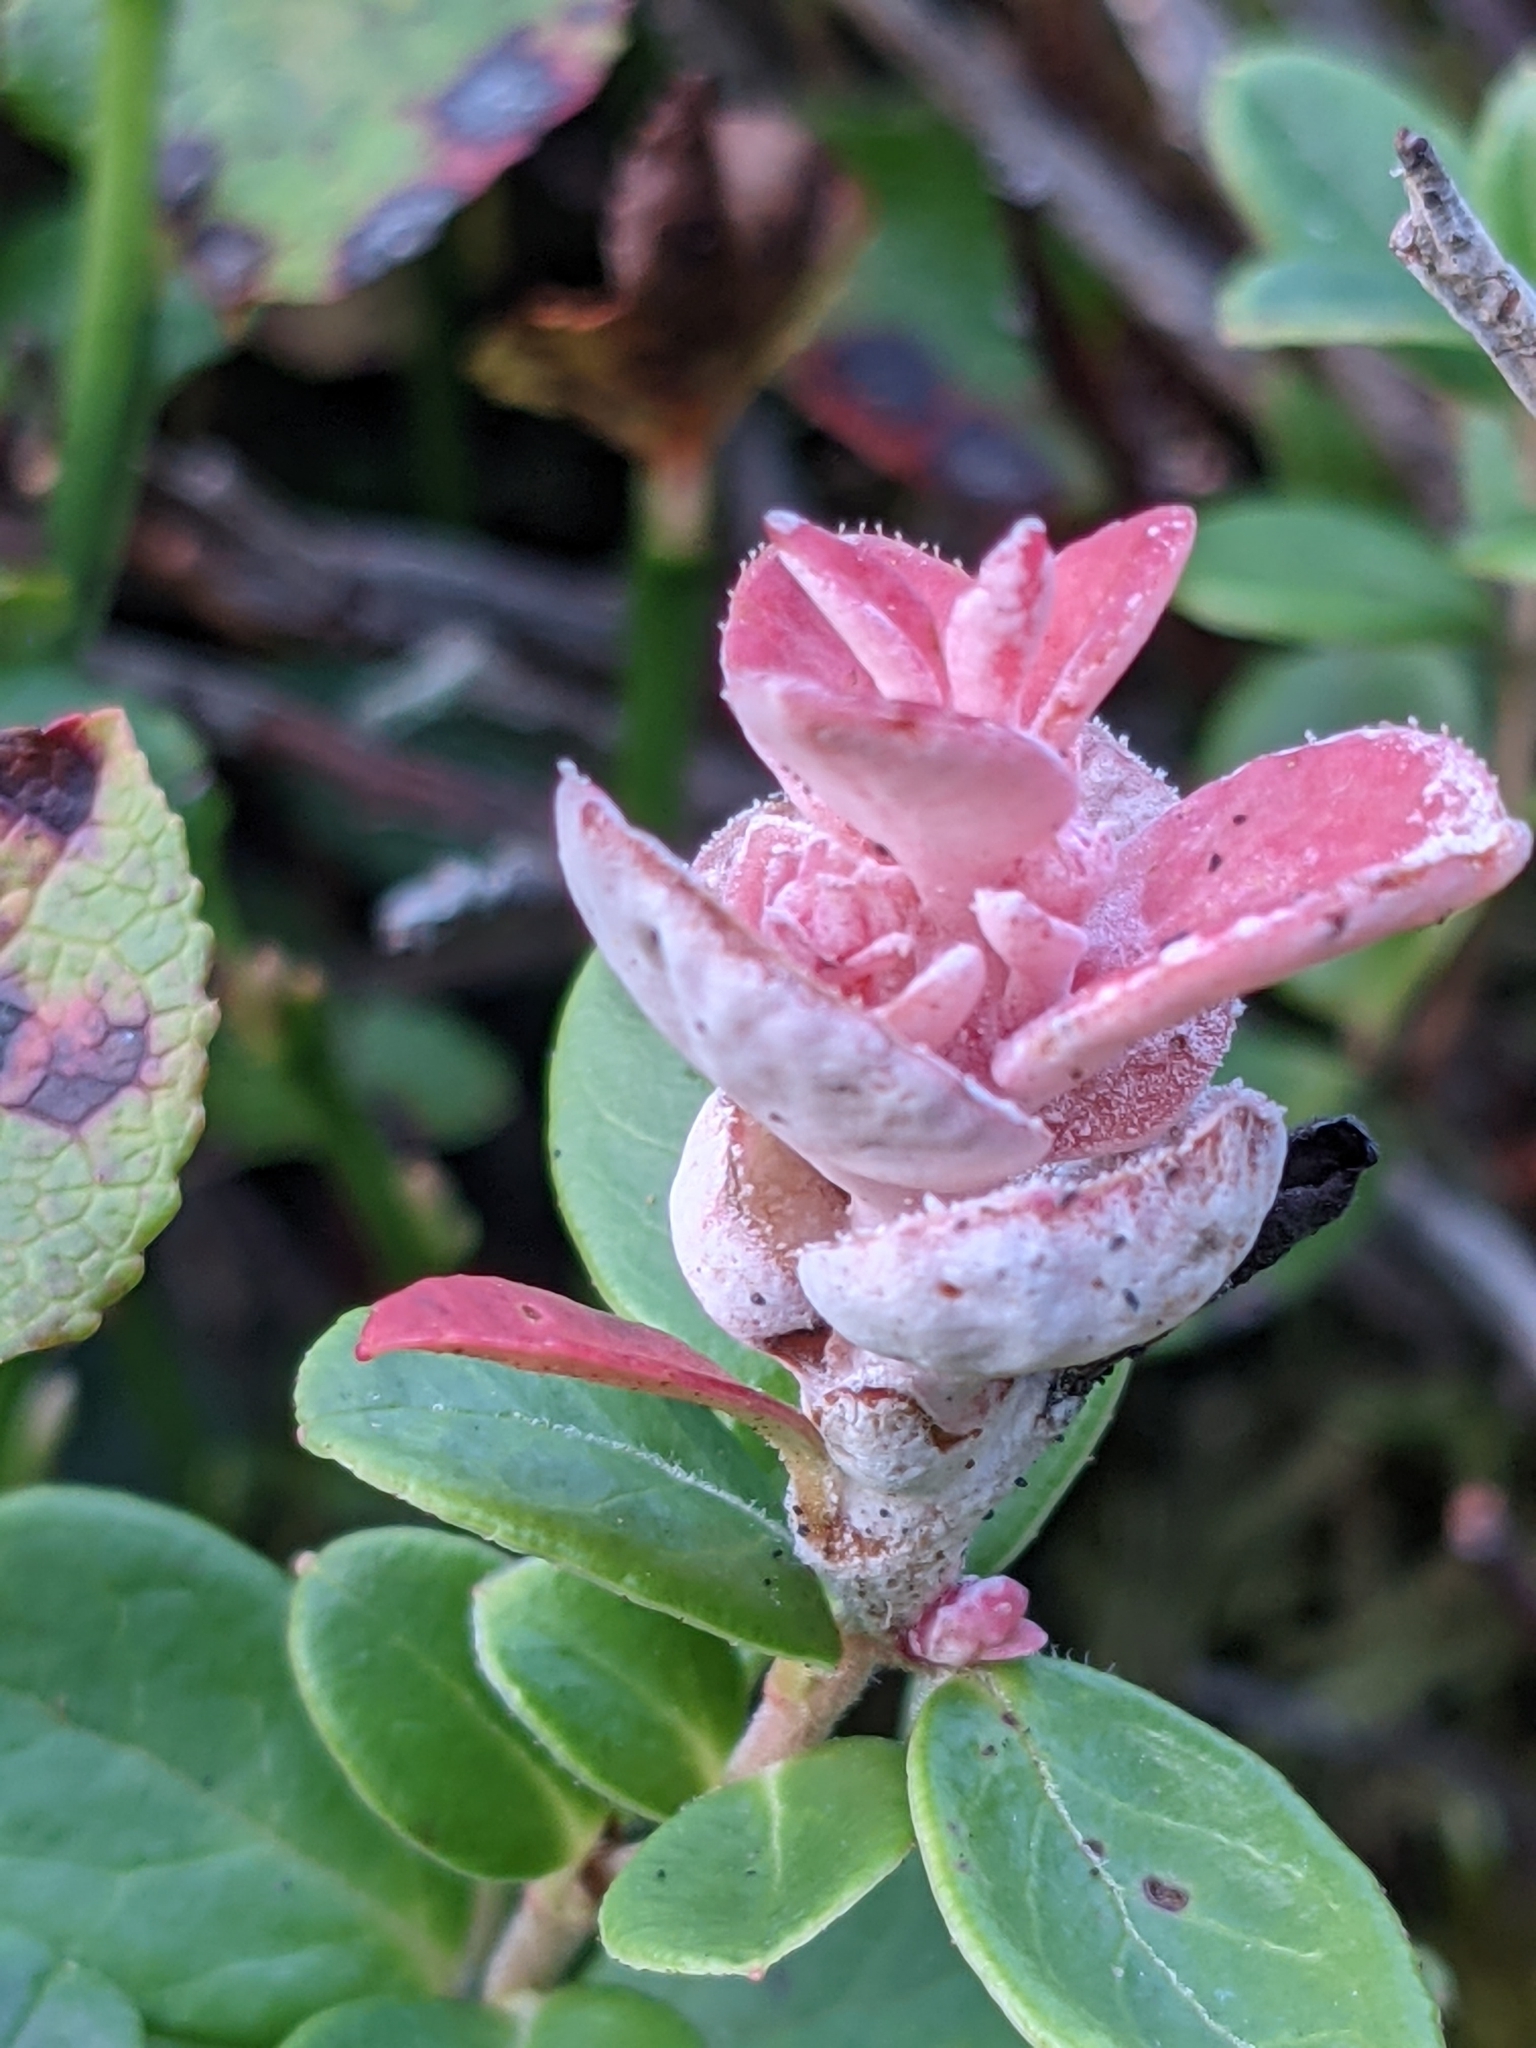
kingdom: Fungi
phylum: Basidiomycota
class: Exobasidiomycetes
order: Exobasidiales
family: Exobasidiaceae
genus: Exobasidium
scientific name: Exobasidium vaccinii
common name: Cowberry redleaf
